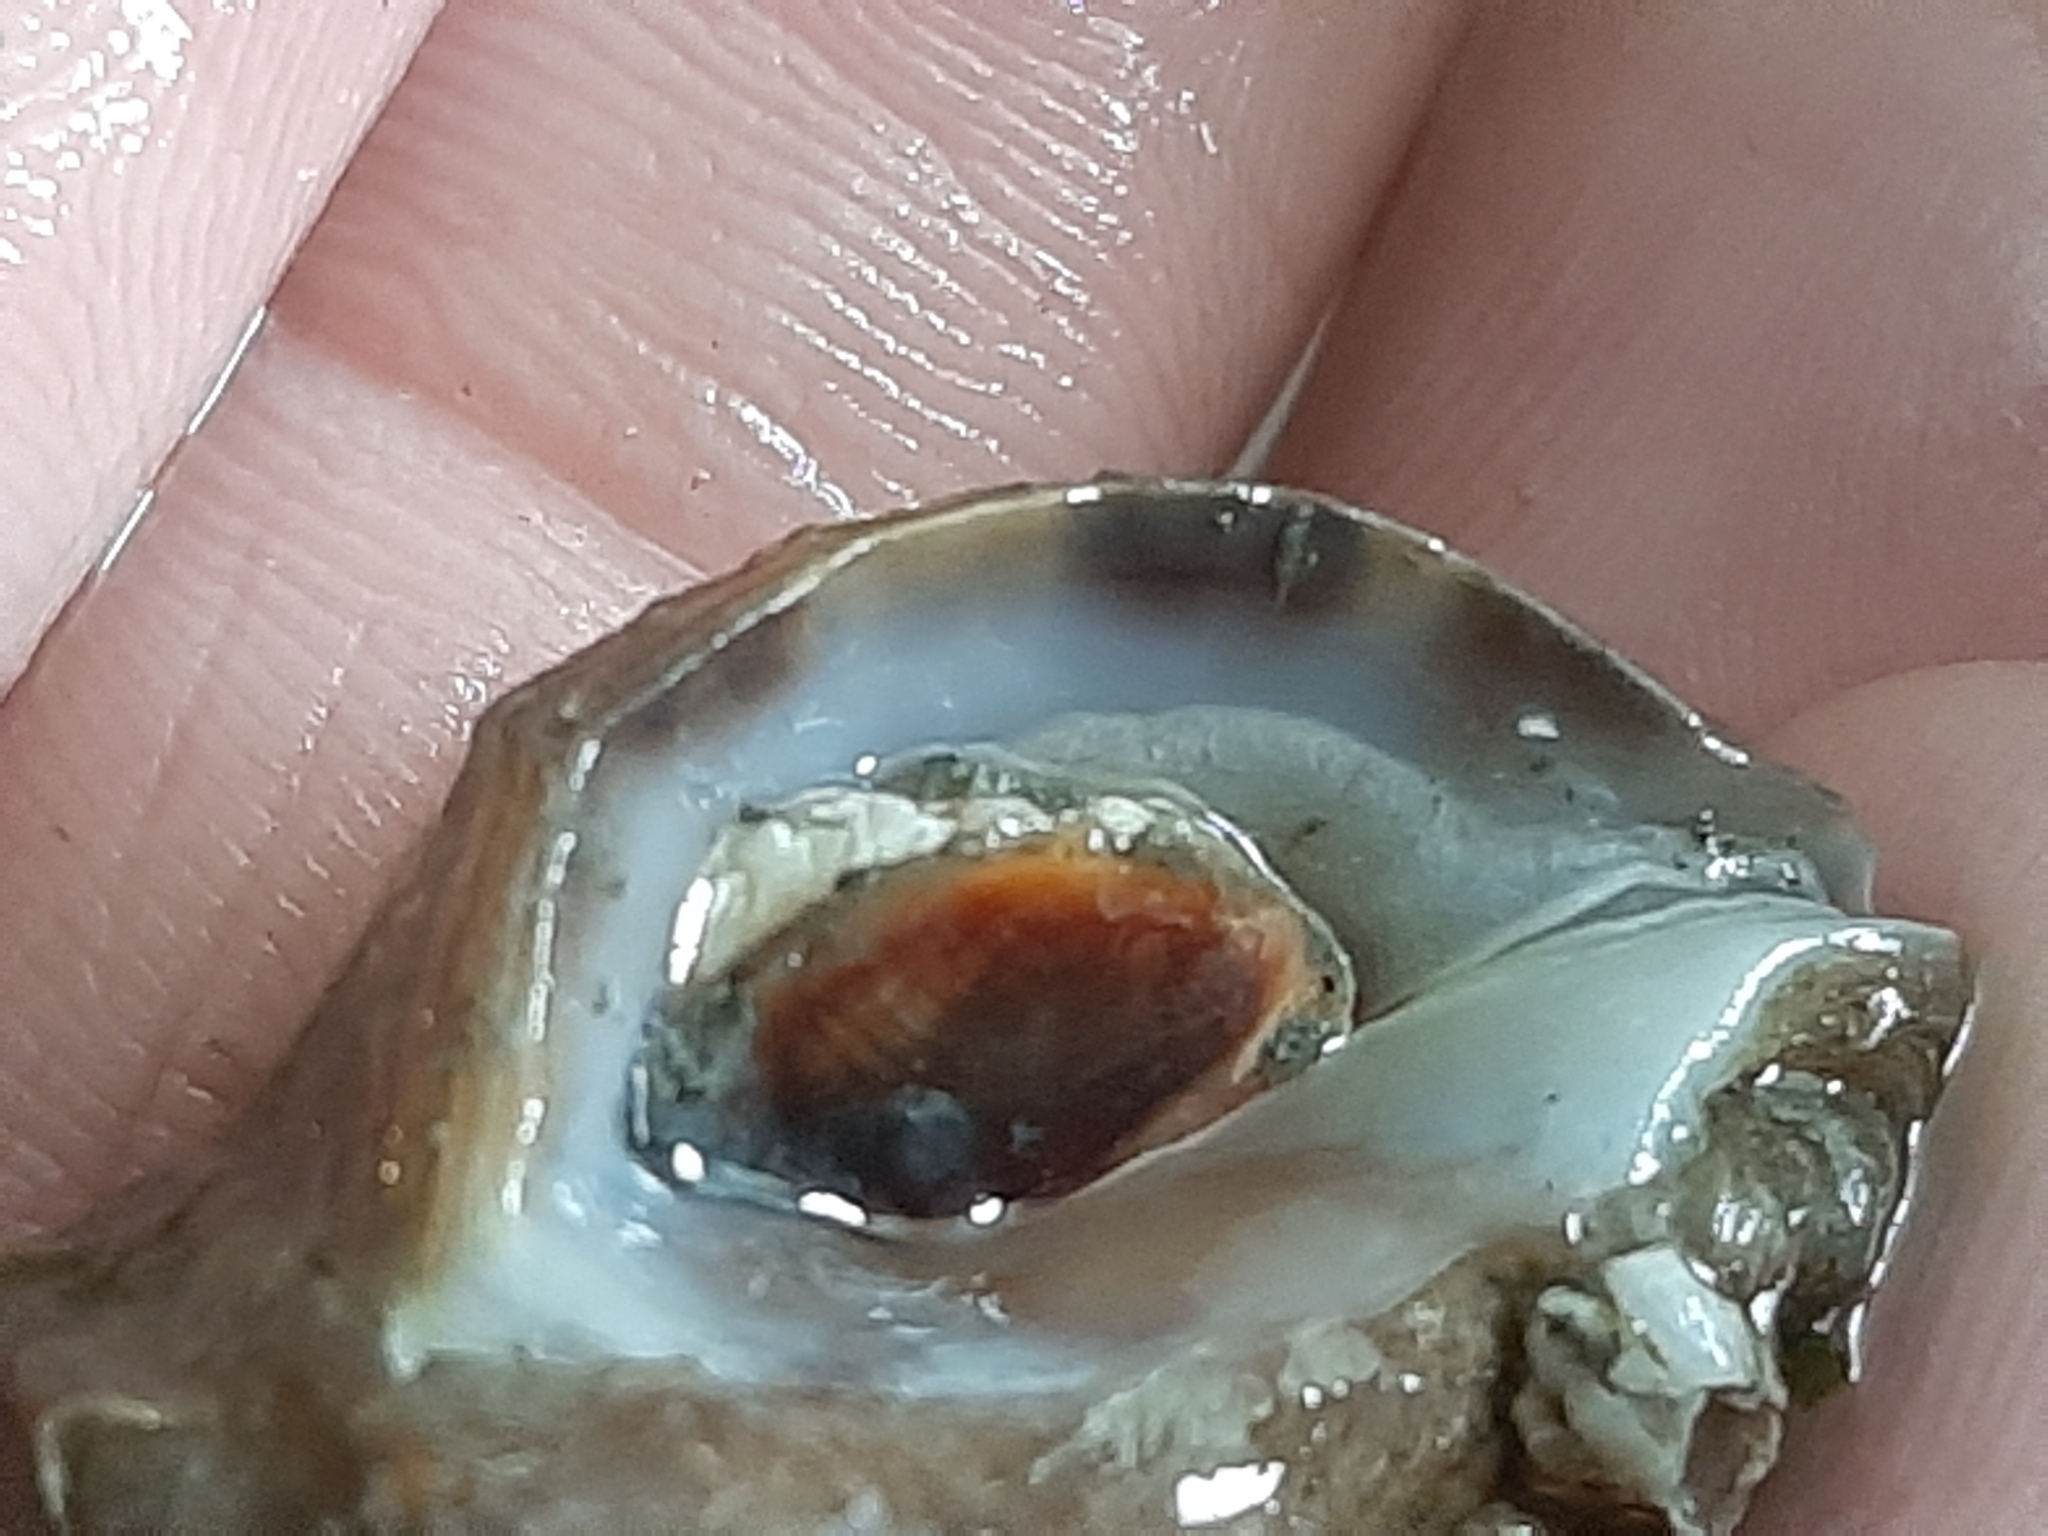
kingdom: Animalia
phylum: Mollusca
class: Gastropoda
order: Neogastropoda
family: Muricidae
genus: Nucella
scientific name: Nucella lamellosa
